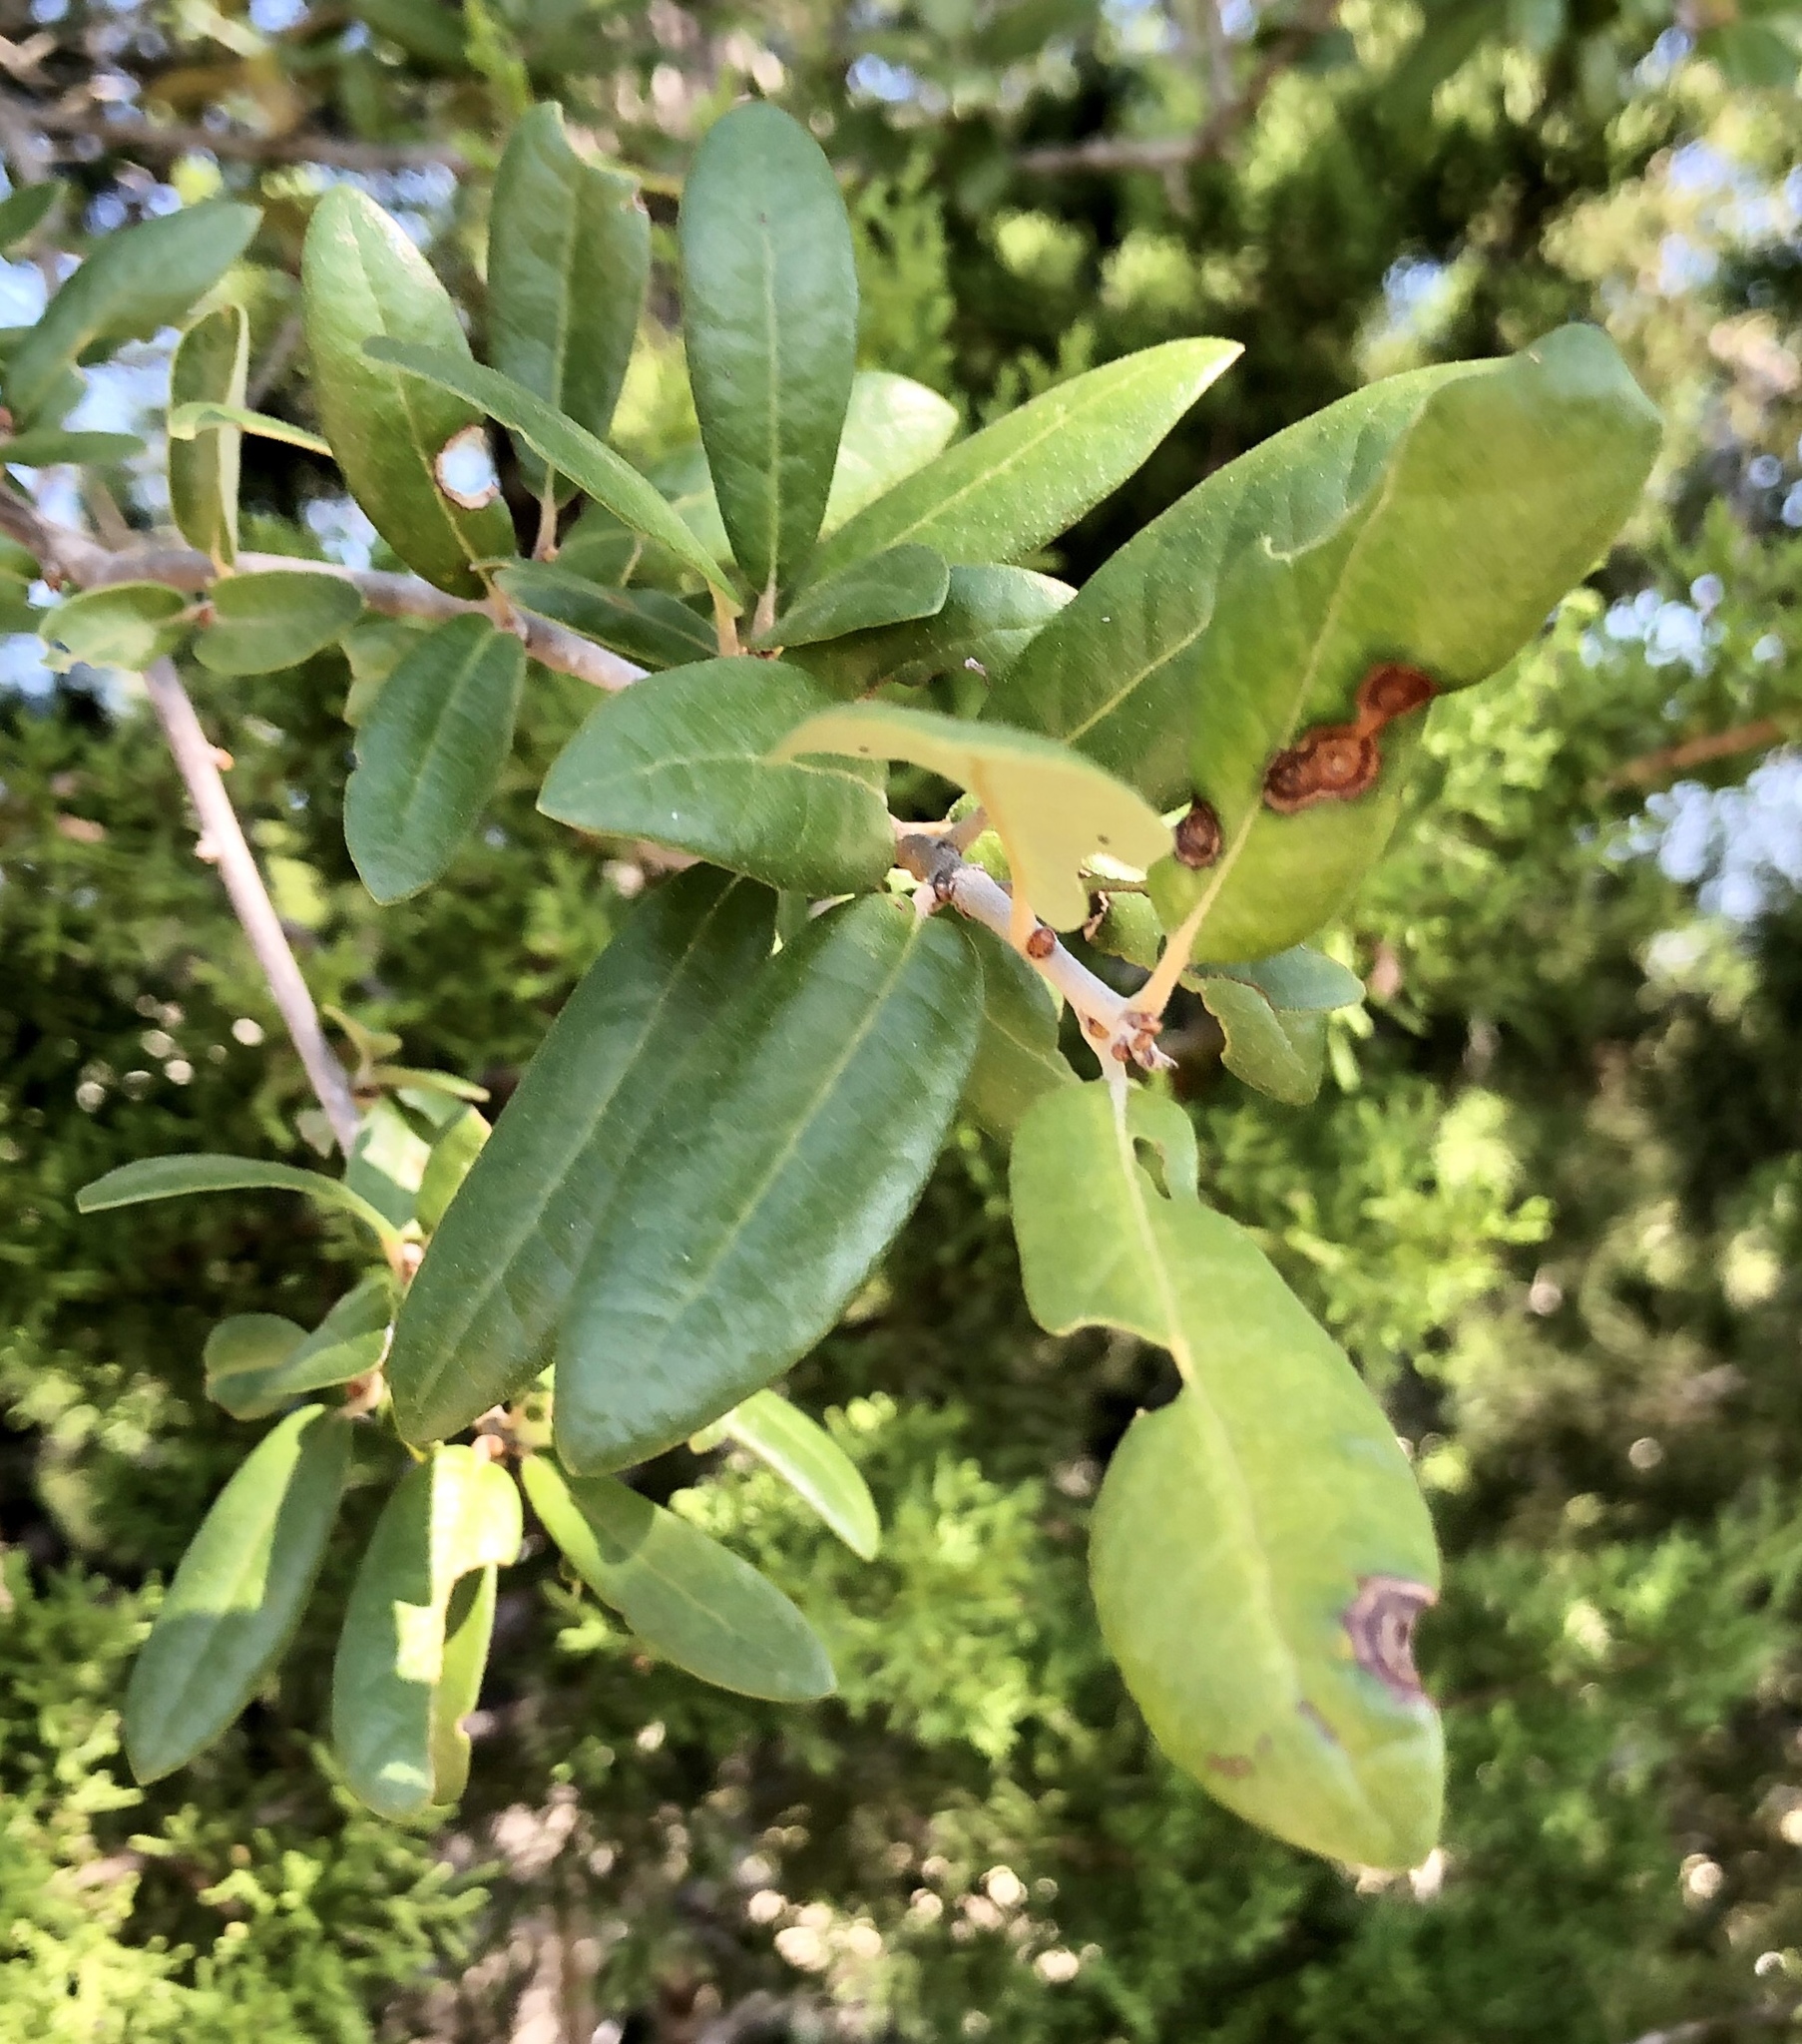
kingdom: Plantae
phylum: Tracheophyta
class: Magnoliopsida
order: Fagales
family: Fagaceae
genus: Quercus
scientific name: Quercus fusiformis
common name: Texas live oak
